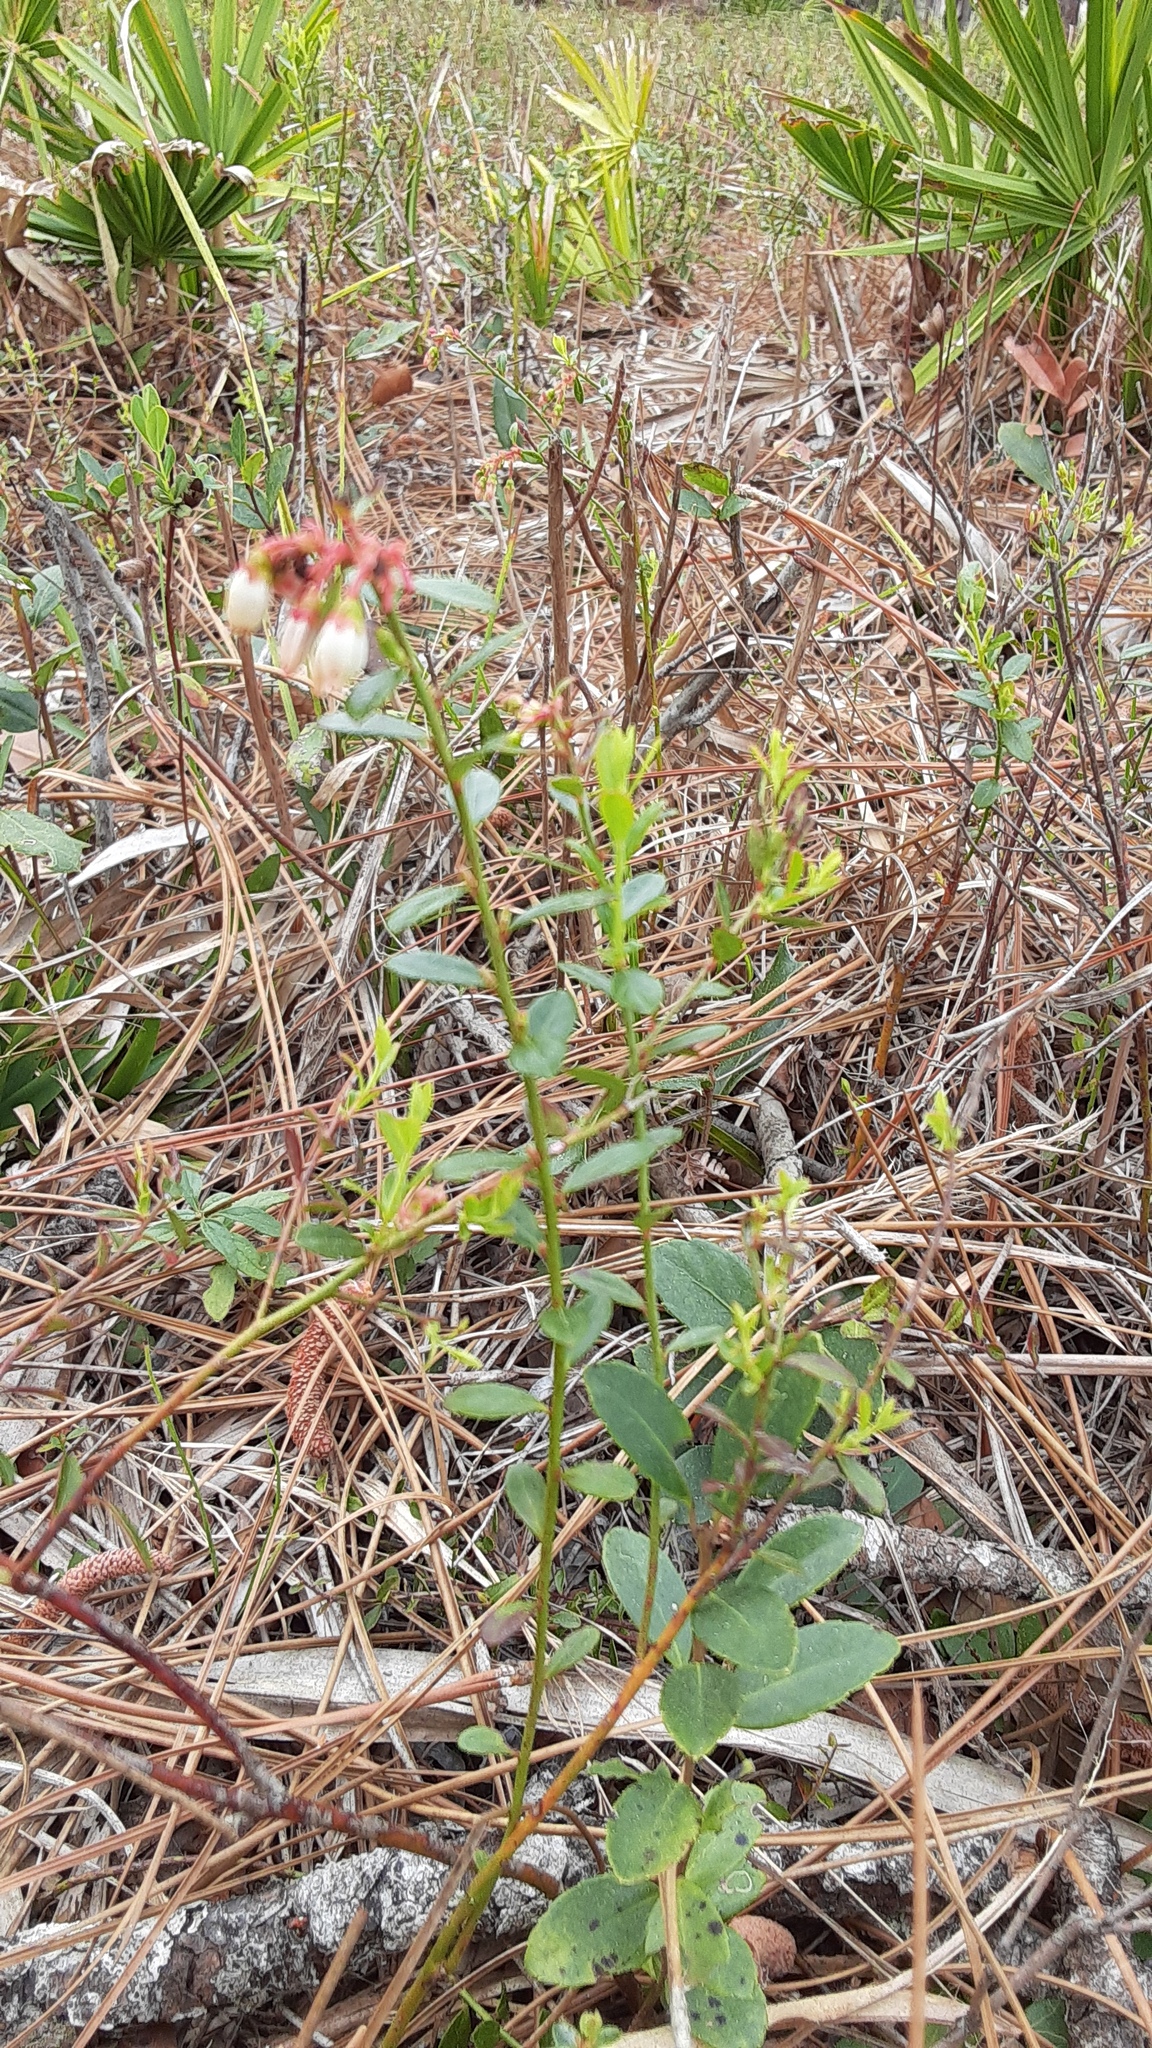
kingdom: Plantae
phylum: Tracheophyta
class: Magnoliopsida
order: Ericales
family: Ericaceae
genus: Vaccinium
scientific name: Vaccinium myrsinites
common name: Evergreen blueberry
